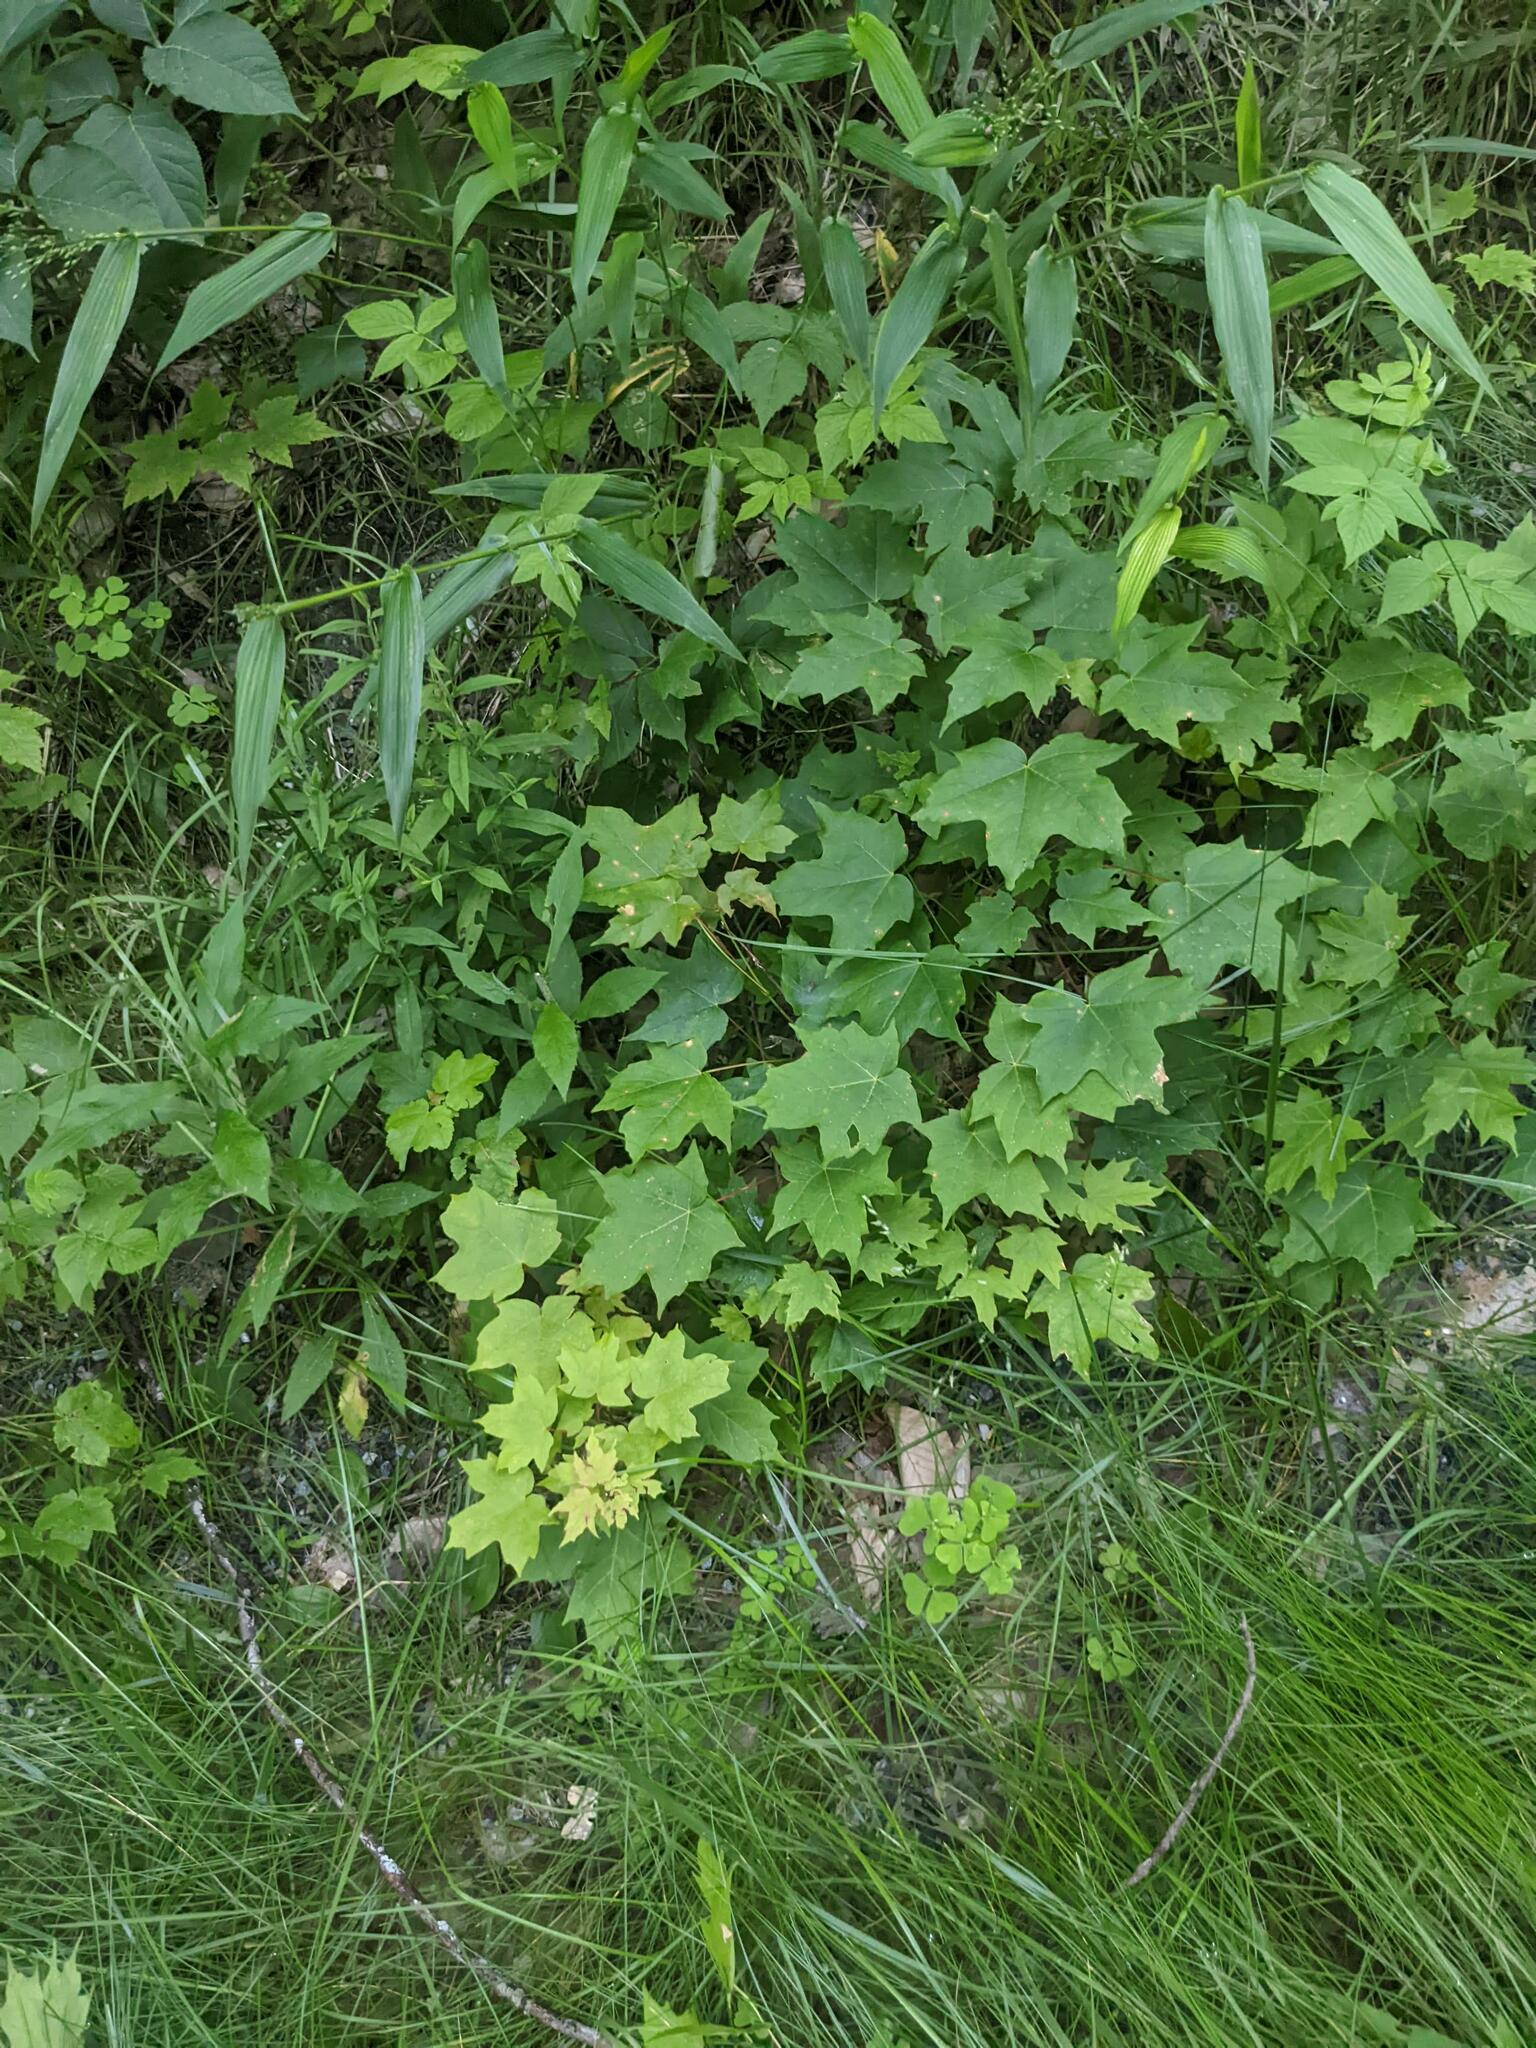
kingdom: Plantae
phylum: Tracheophyta
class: Magnoliopsida
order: Sapindales
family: Sapindaceae
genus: Acer
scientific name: Acer saccharum
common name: Sugar maple
